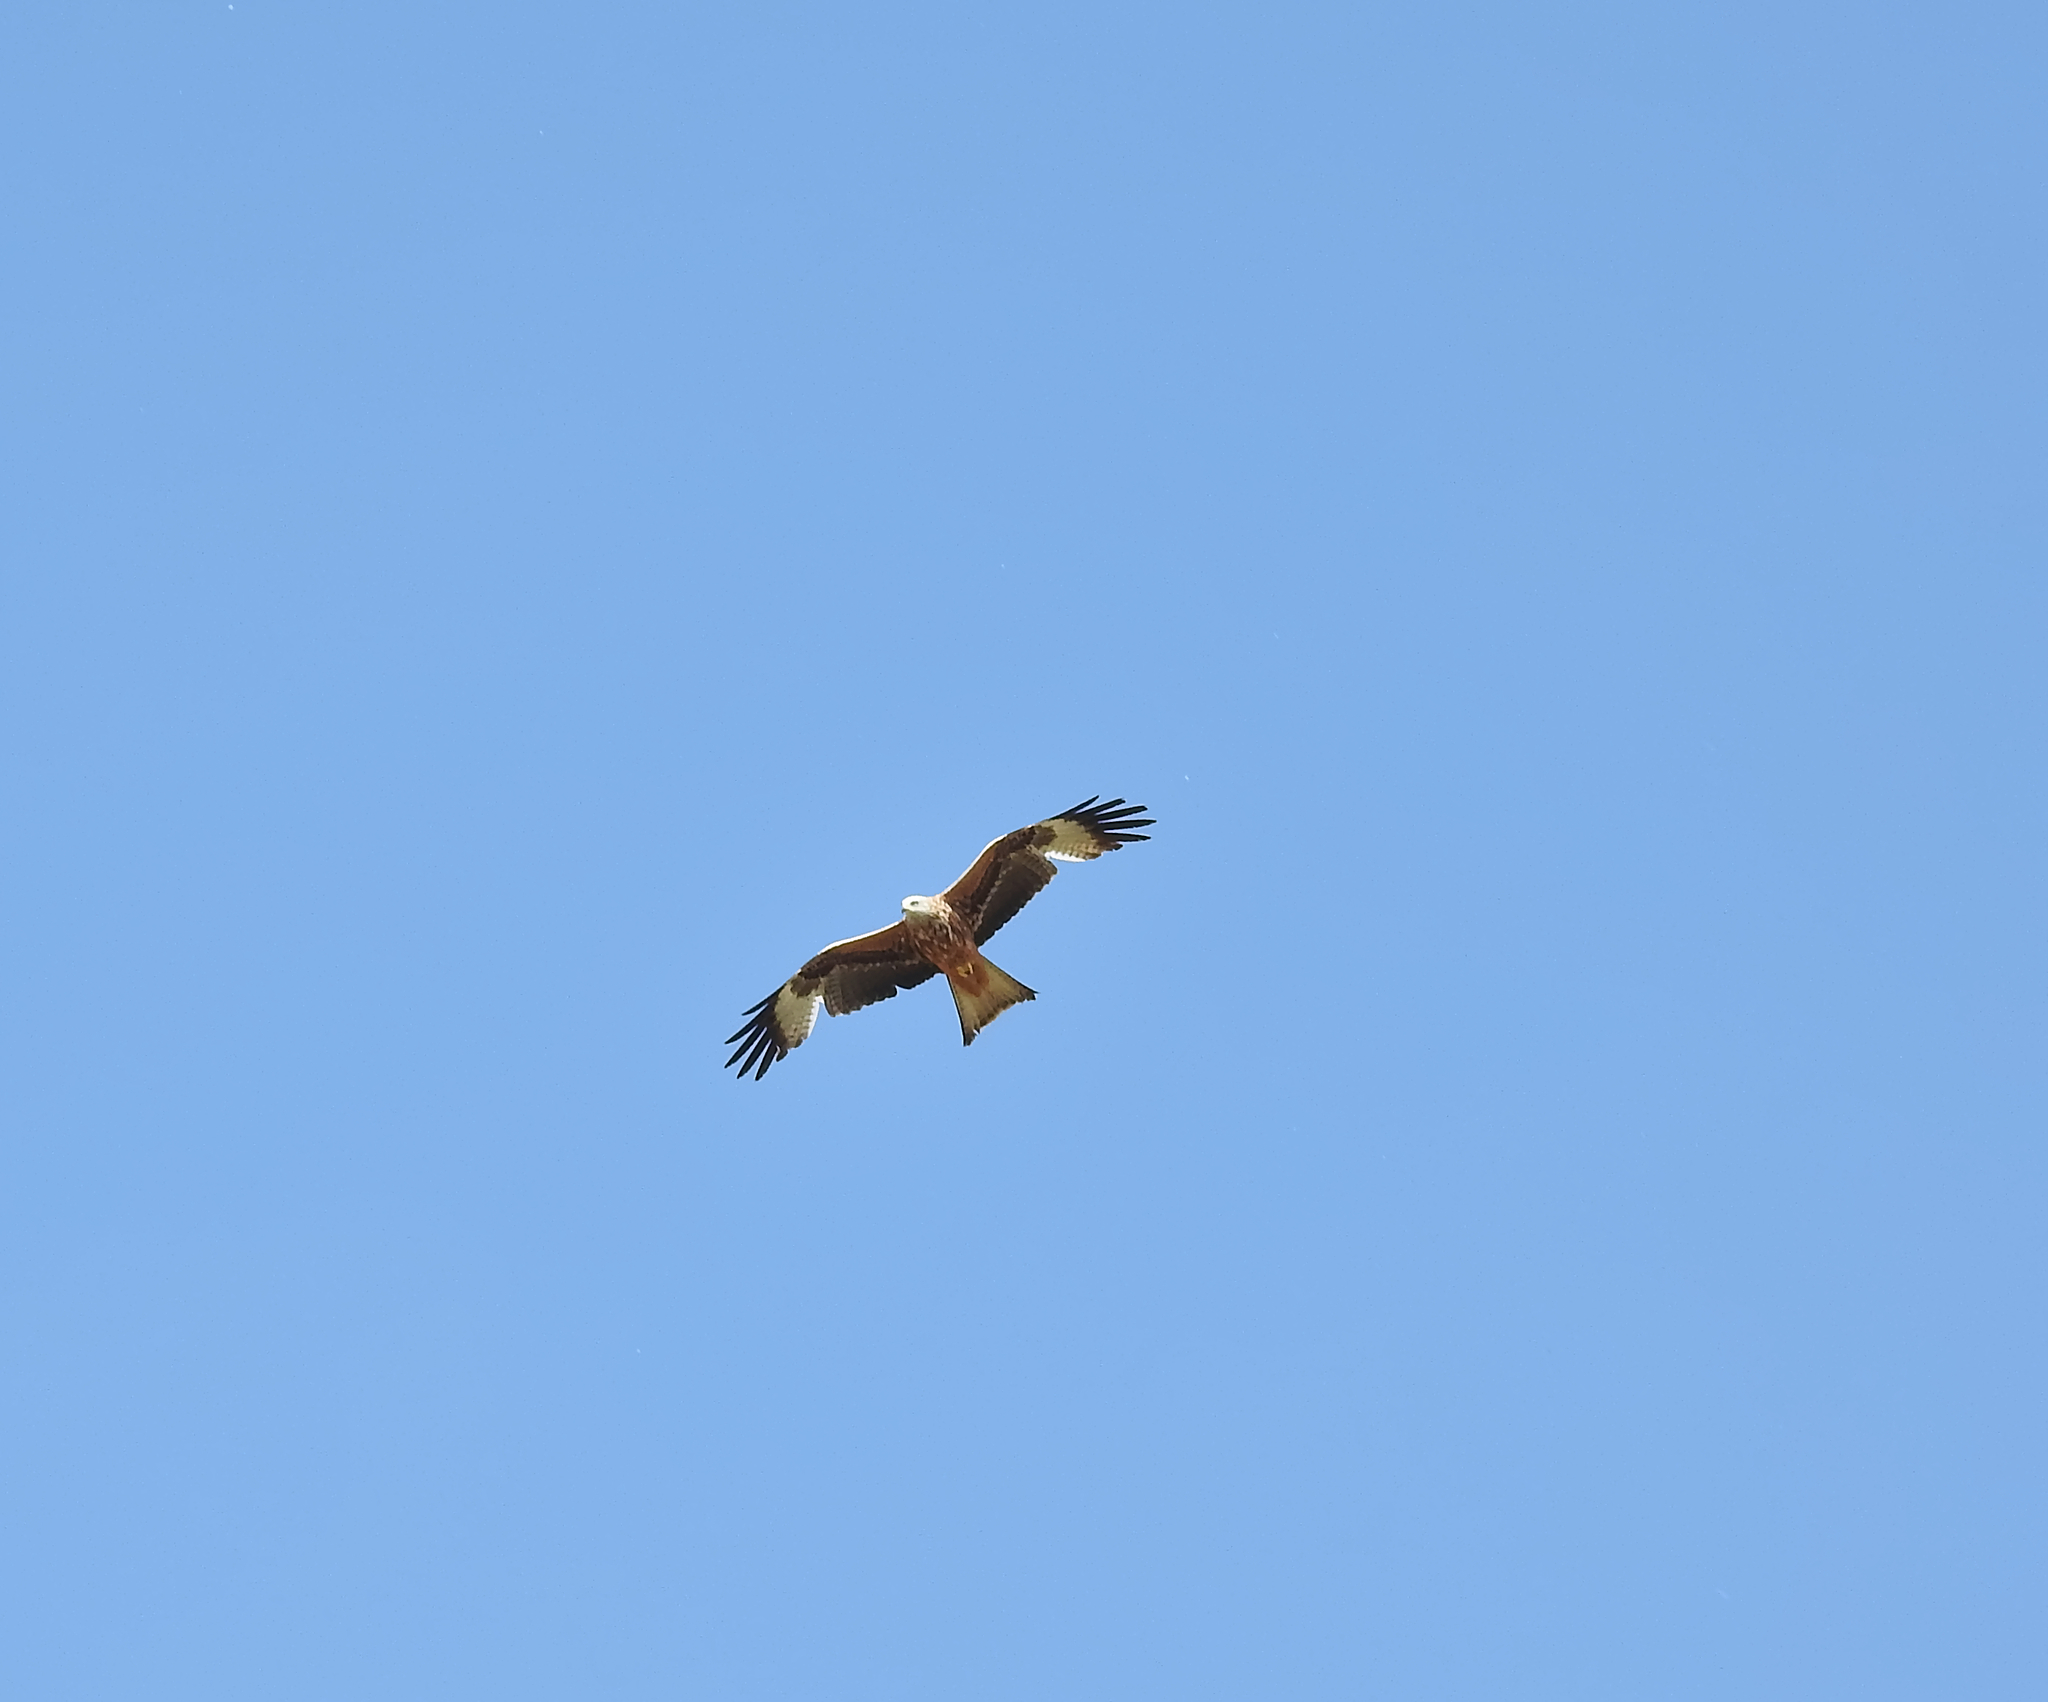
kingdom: Animalia
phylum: Chordata
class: Aves
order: Accipitriformes
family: Accipitridae
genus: Milvus
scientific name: Milvus milvus
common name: Red kite
